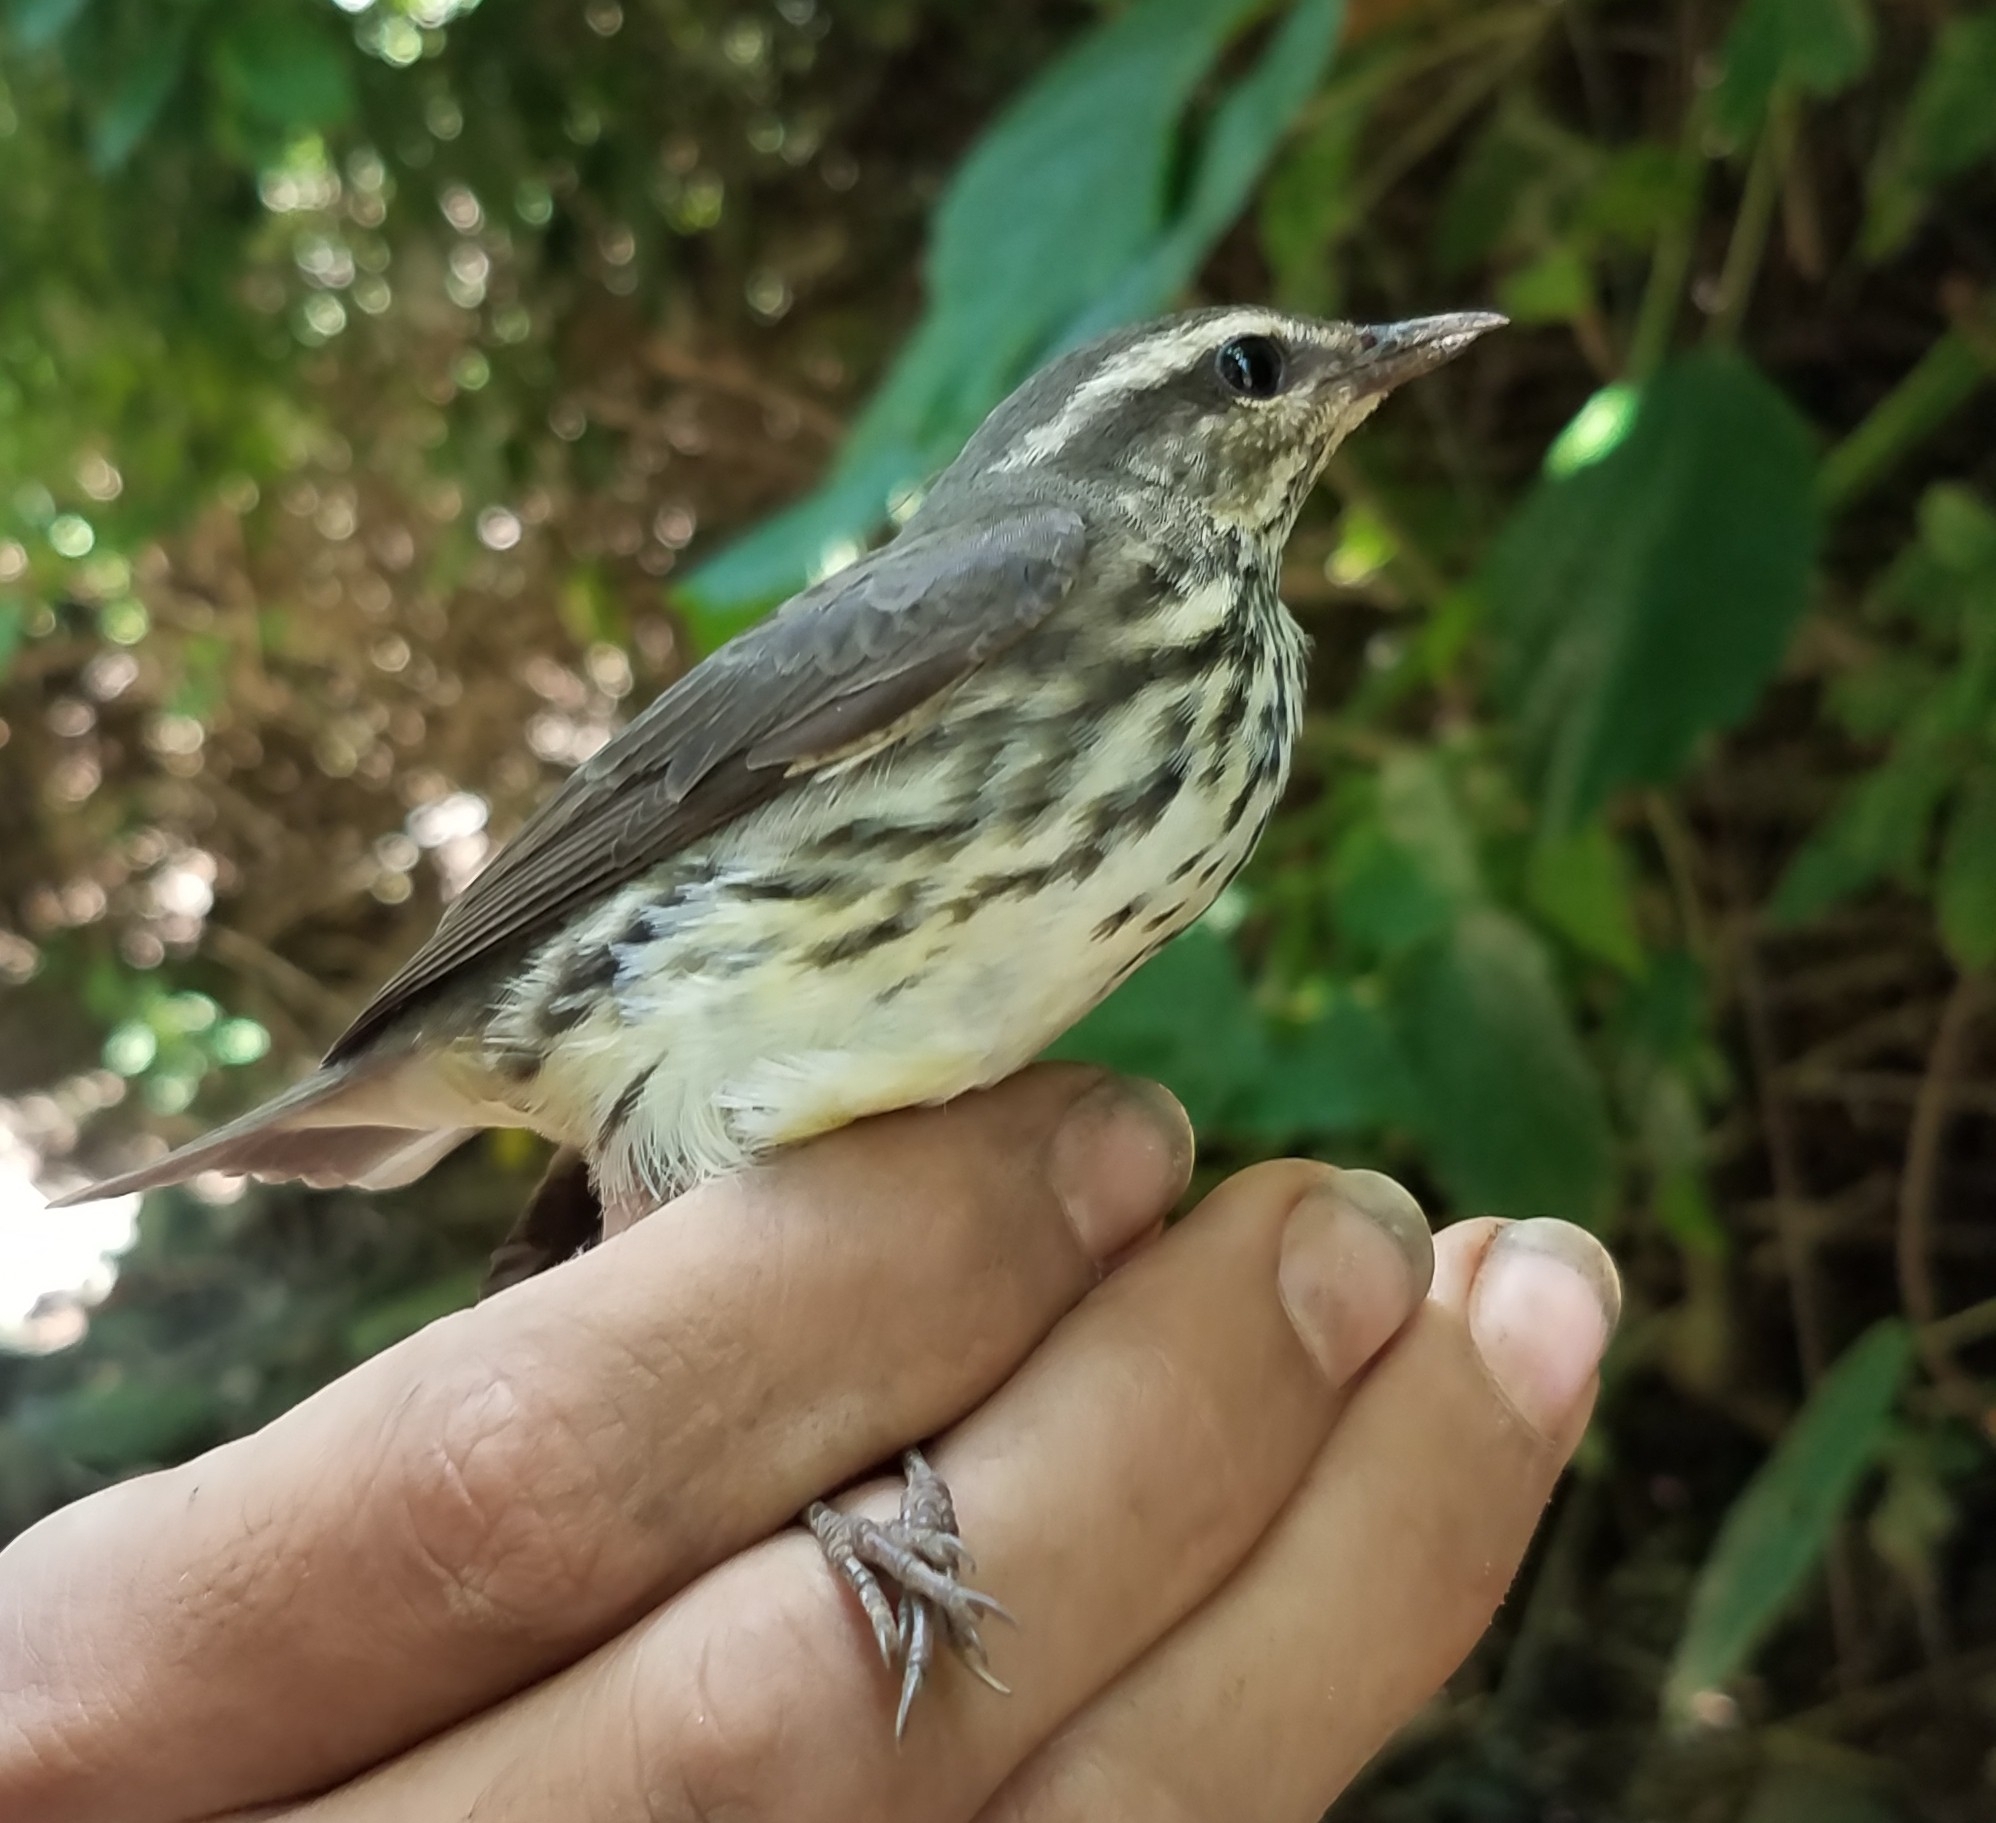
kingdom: Animalia
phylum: Chordata
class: Aves
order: Passeriformes
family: Parulidae
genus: Parkesia
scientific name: Parkesia noveboracensis
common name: Northern waterthrush
